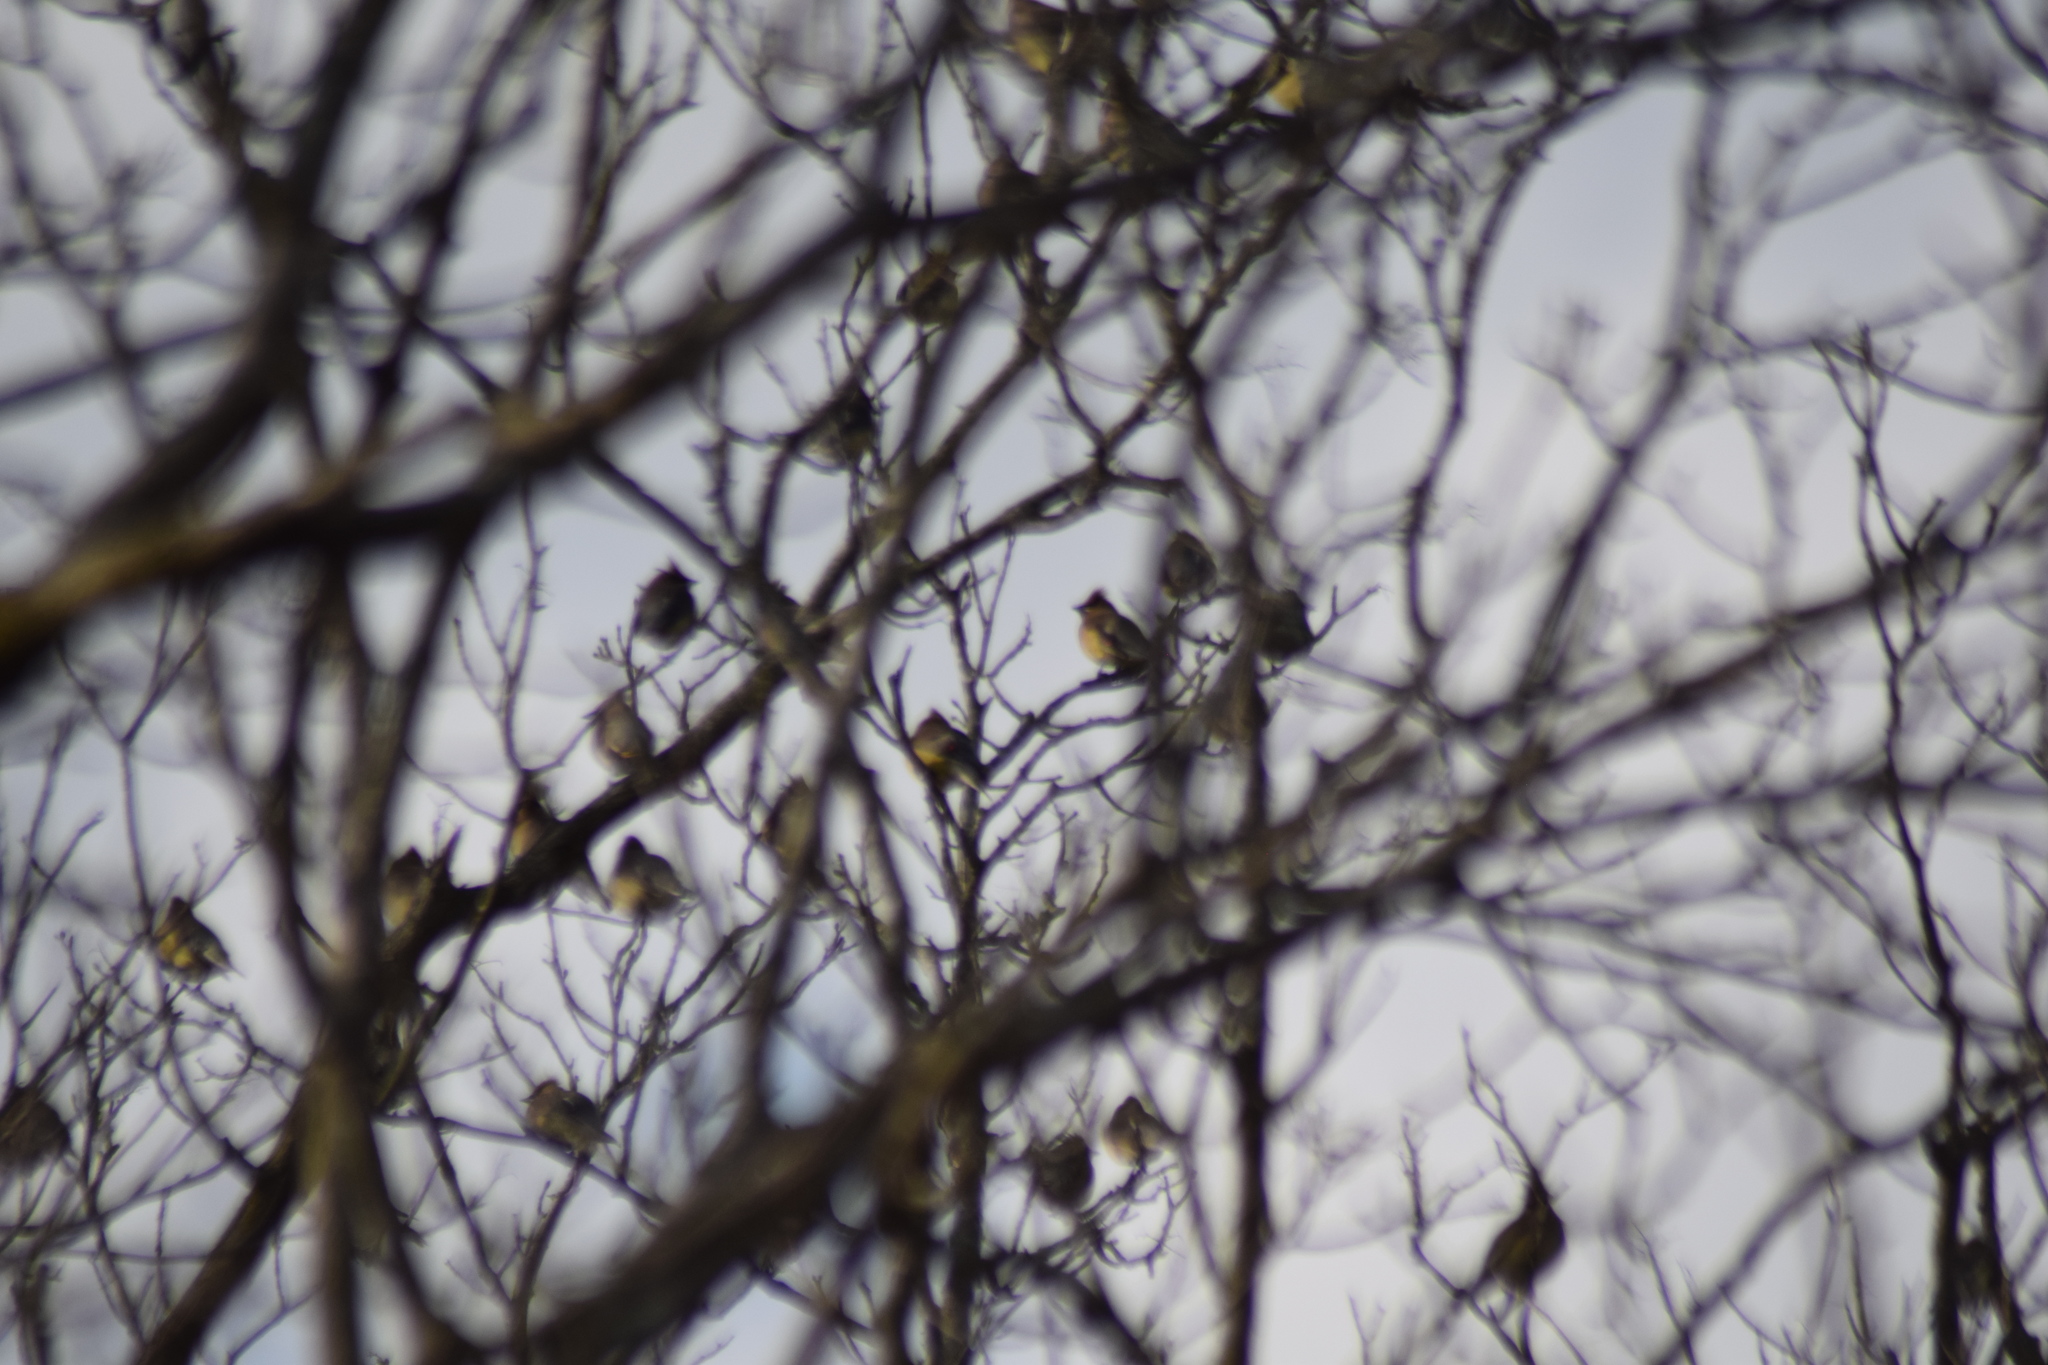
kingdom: Animalia
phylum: Chordata
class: Aves
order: Passeriformes
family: Bombycillidae
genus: Bombycilla
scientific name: Bombycilla cedrorum
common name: Cedar waxwing
